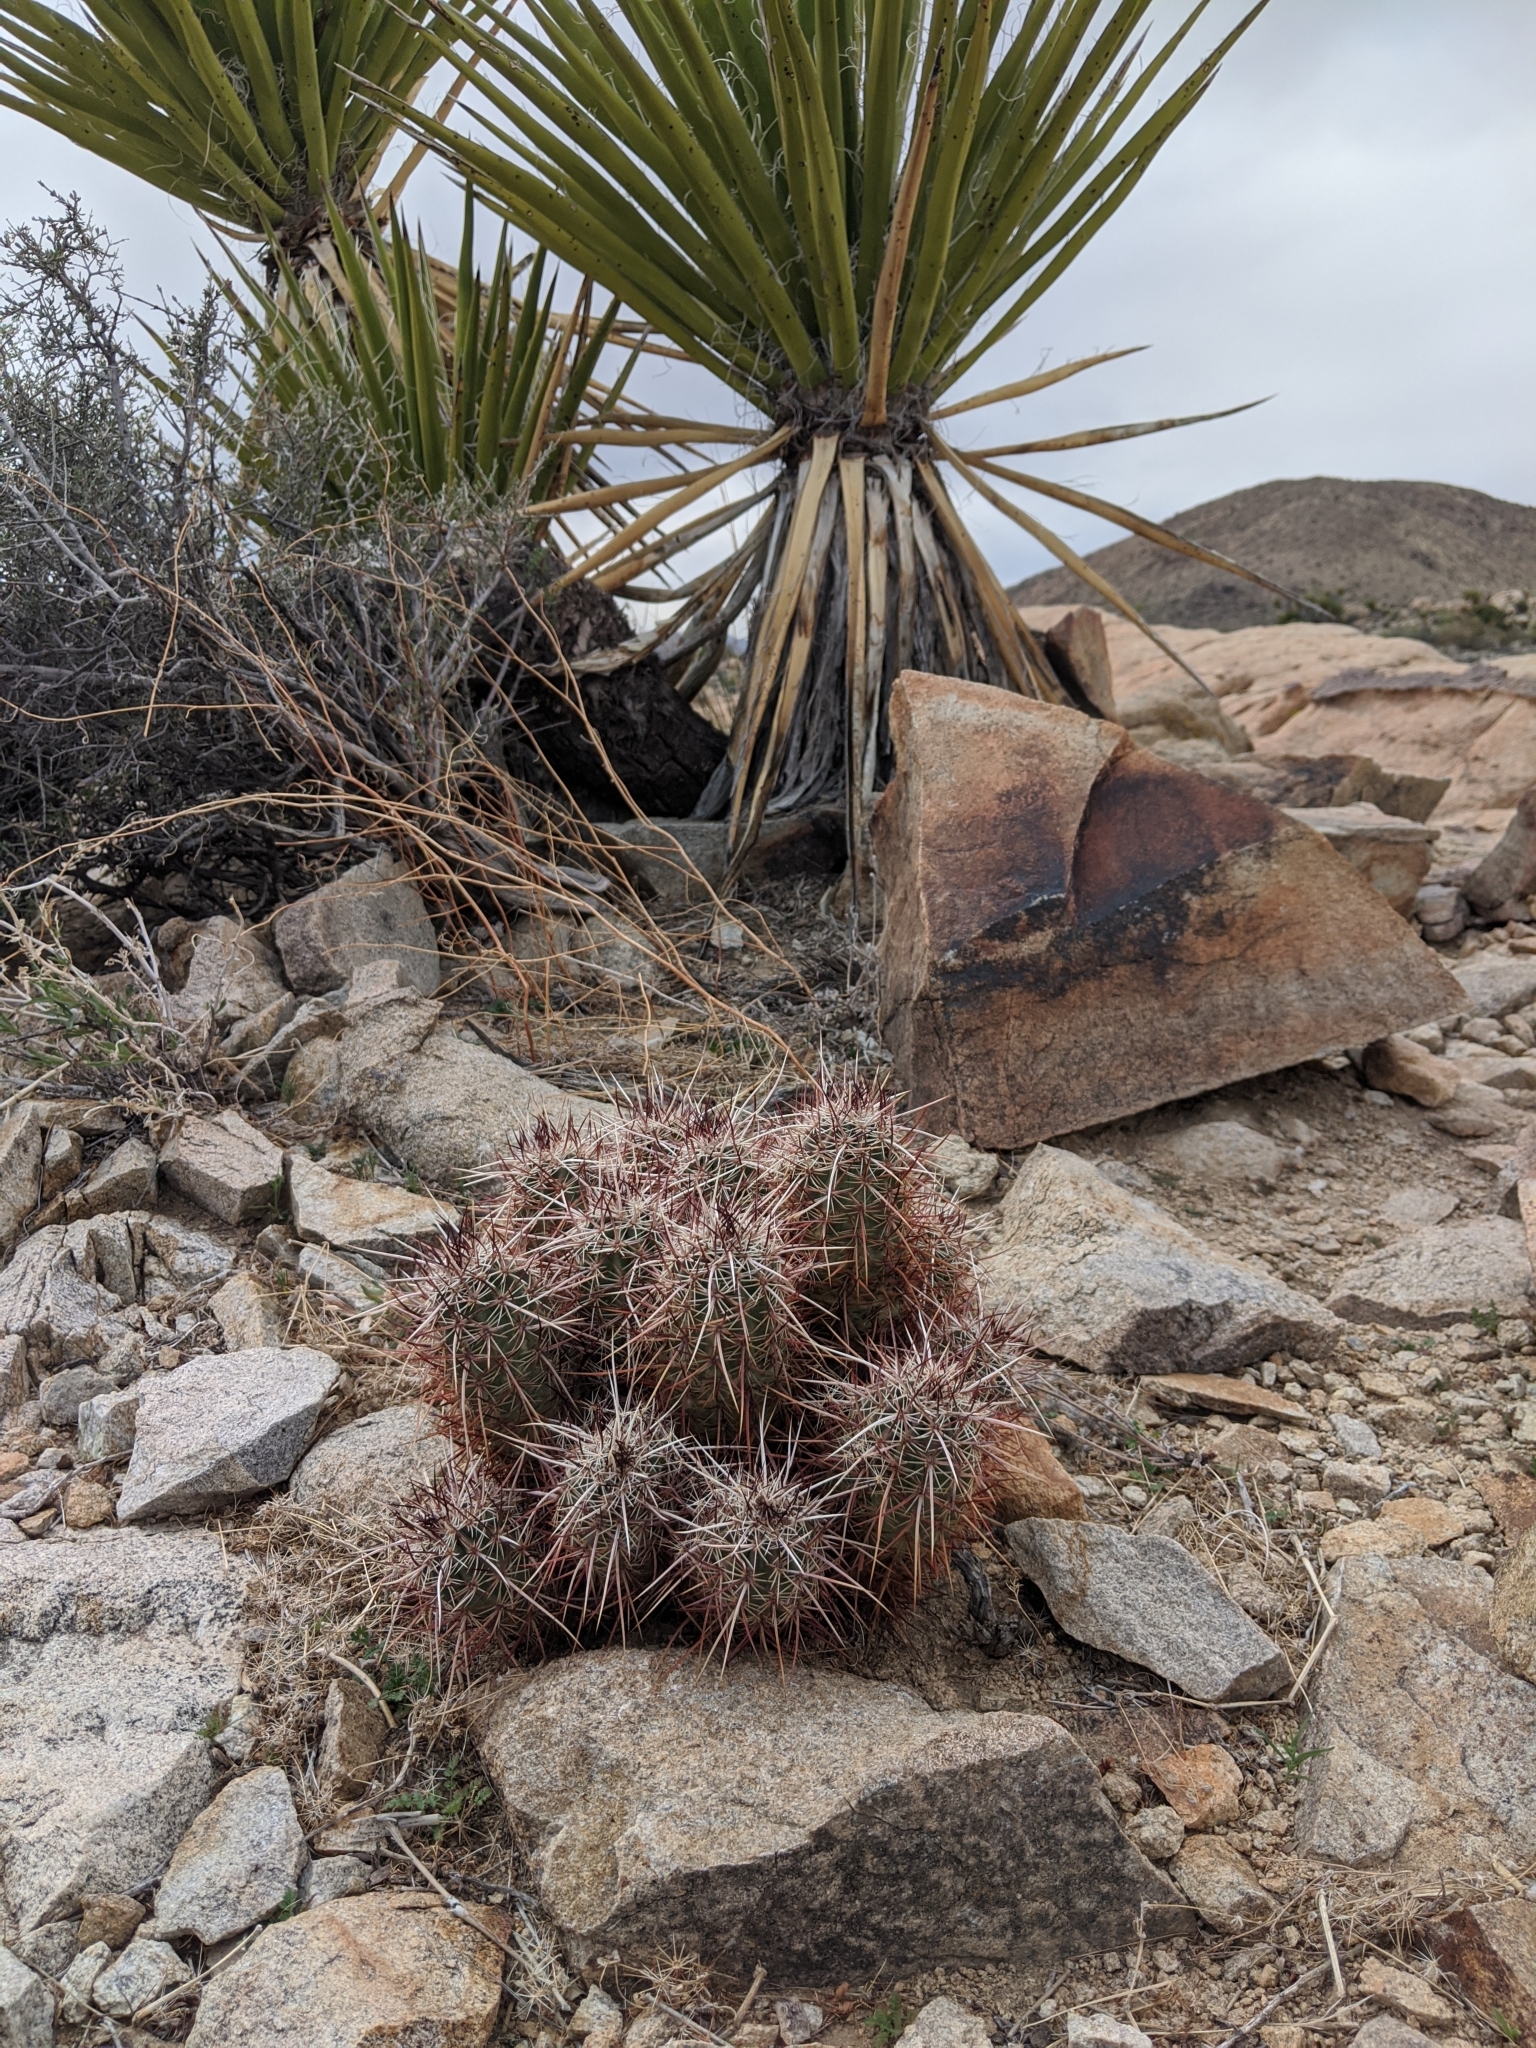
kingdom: Plantae
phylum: Tracheophyta
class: Magnoliopsida
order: Caryophyllales
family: Cactaceae
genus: Echinocereus
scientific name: Echinocereus engelmannii
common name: Engelmann's hedgehog cactus
